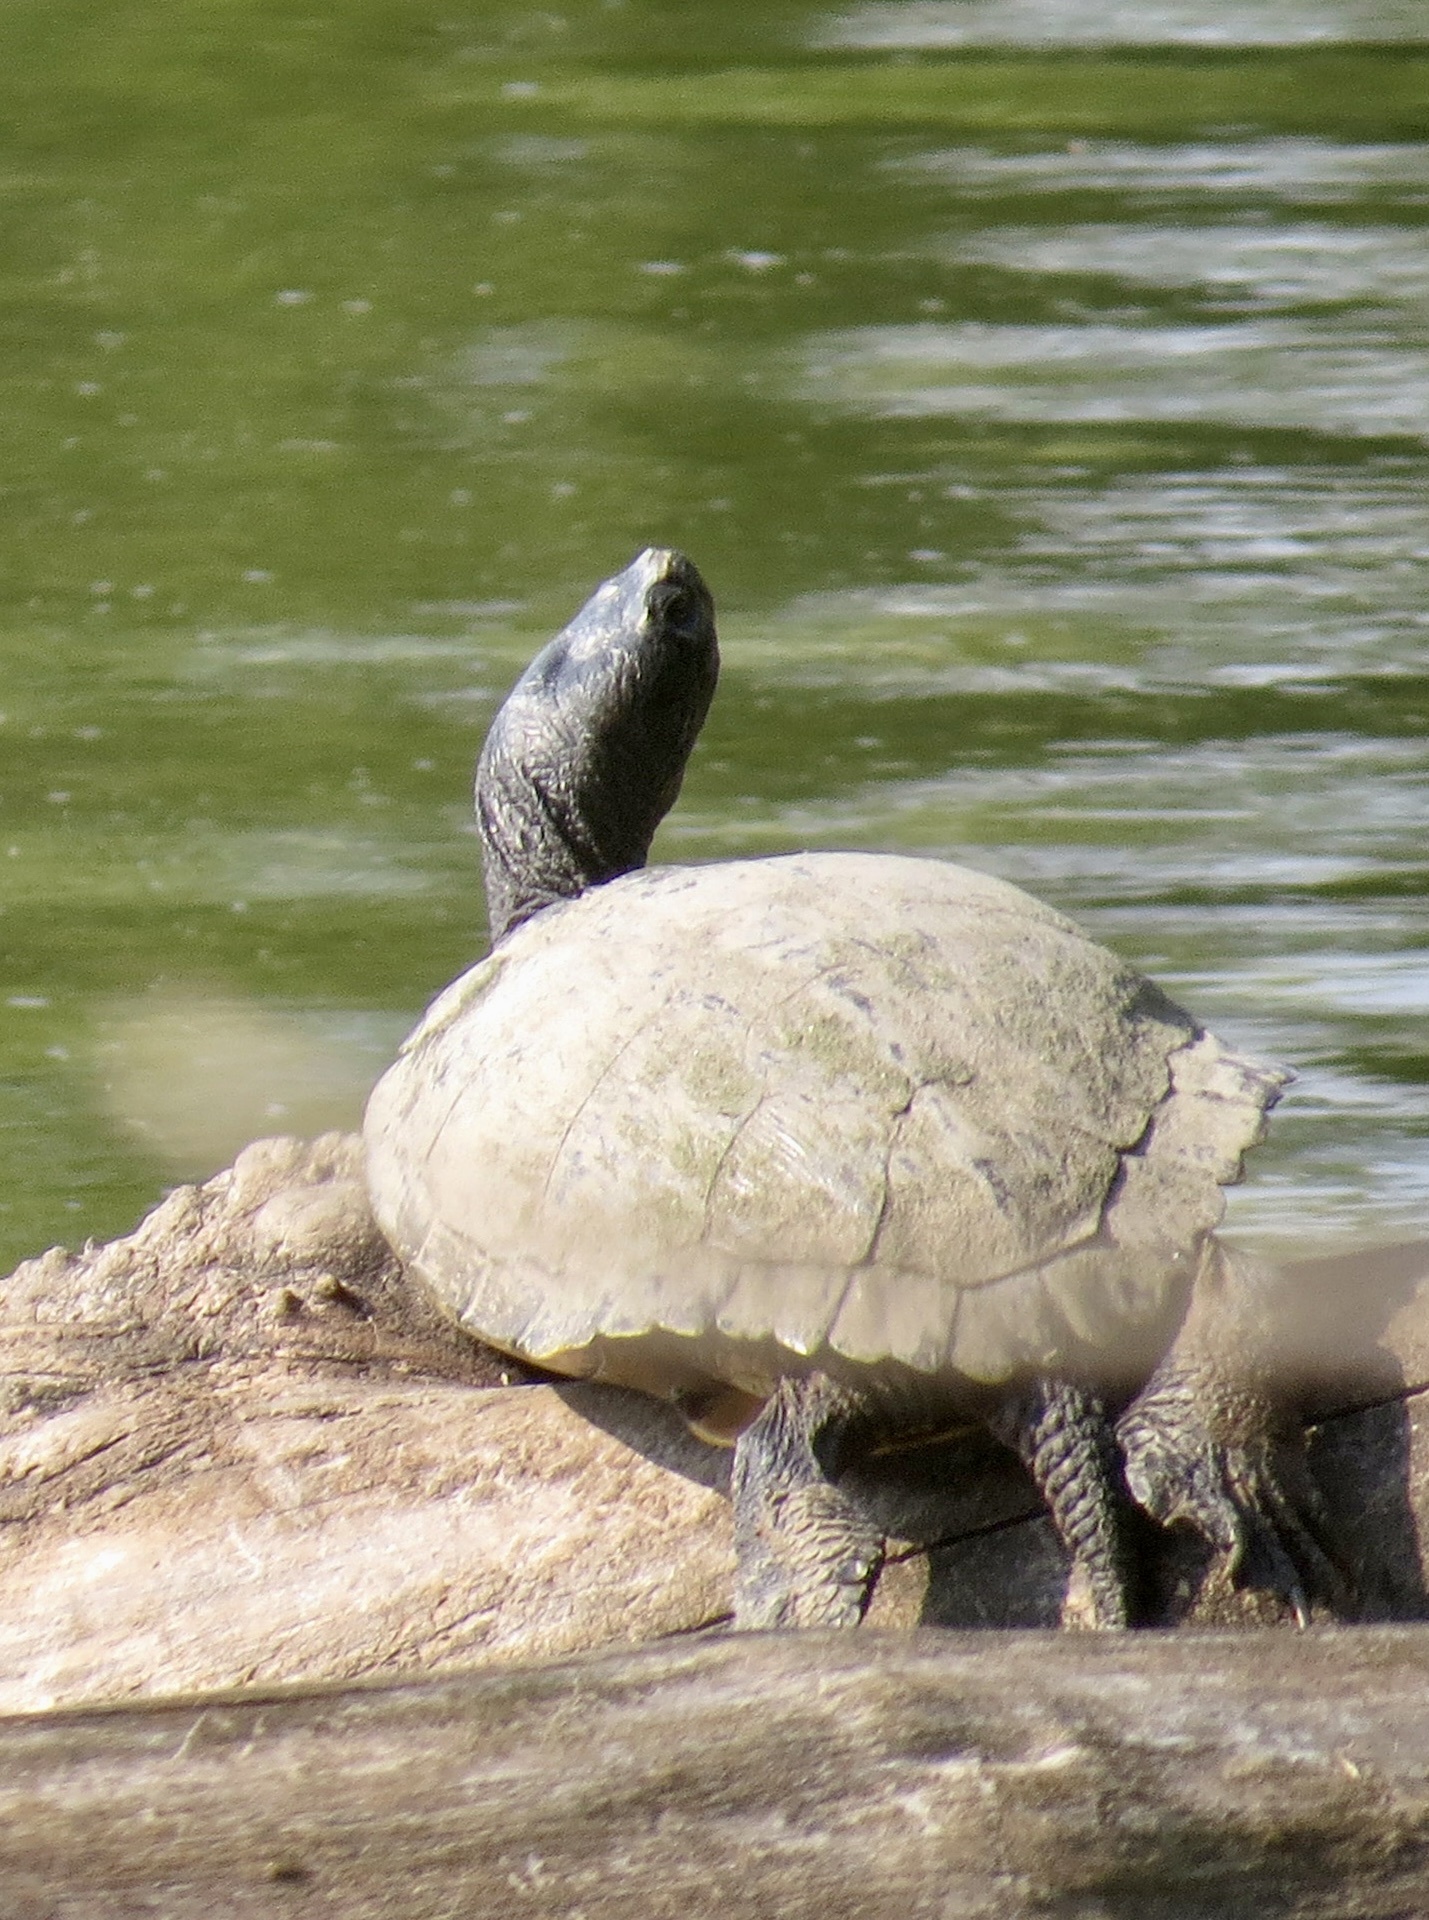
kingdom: Animalia
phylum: Chordata
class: Testudines
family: Emydidae
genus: Trachemys
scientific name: Trachemys scripta
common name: Slider
